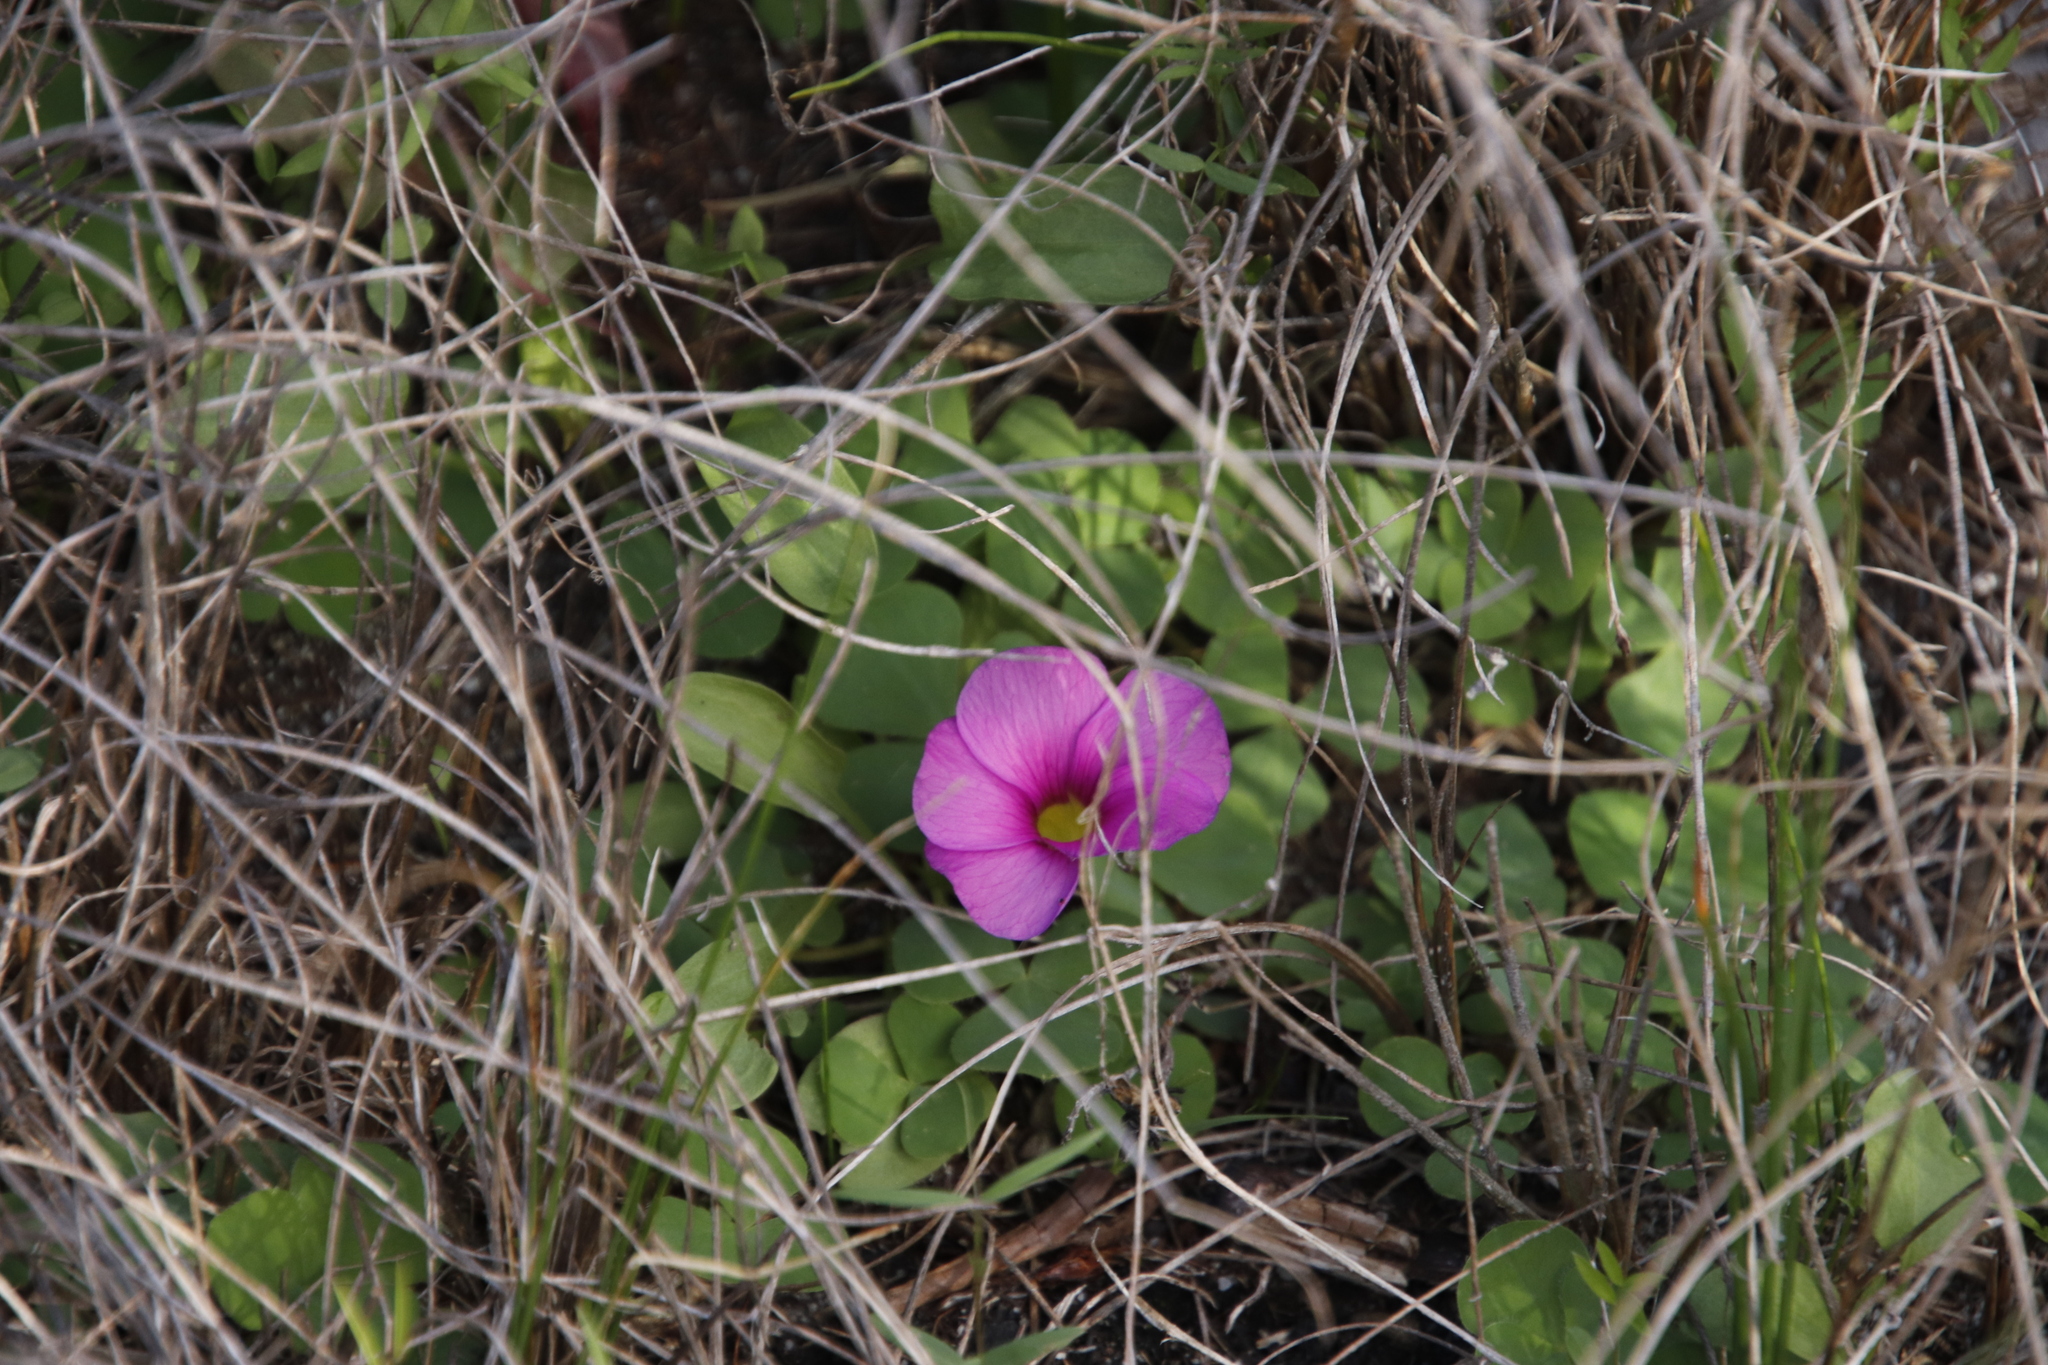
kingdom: Plantae
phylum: Tracheophyta
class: Magnoliopsida
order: Oxalidales
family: Oxalidaceae
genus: Oxalis
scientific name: Oxalis purpurea
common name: Purple woodsorrel
